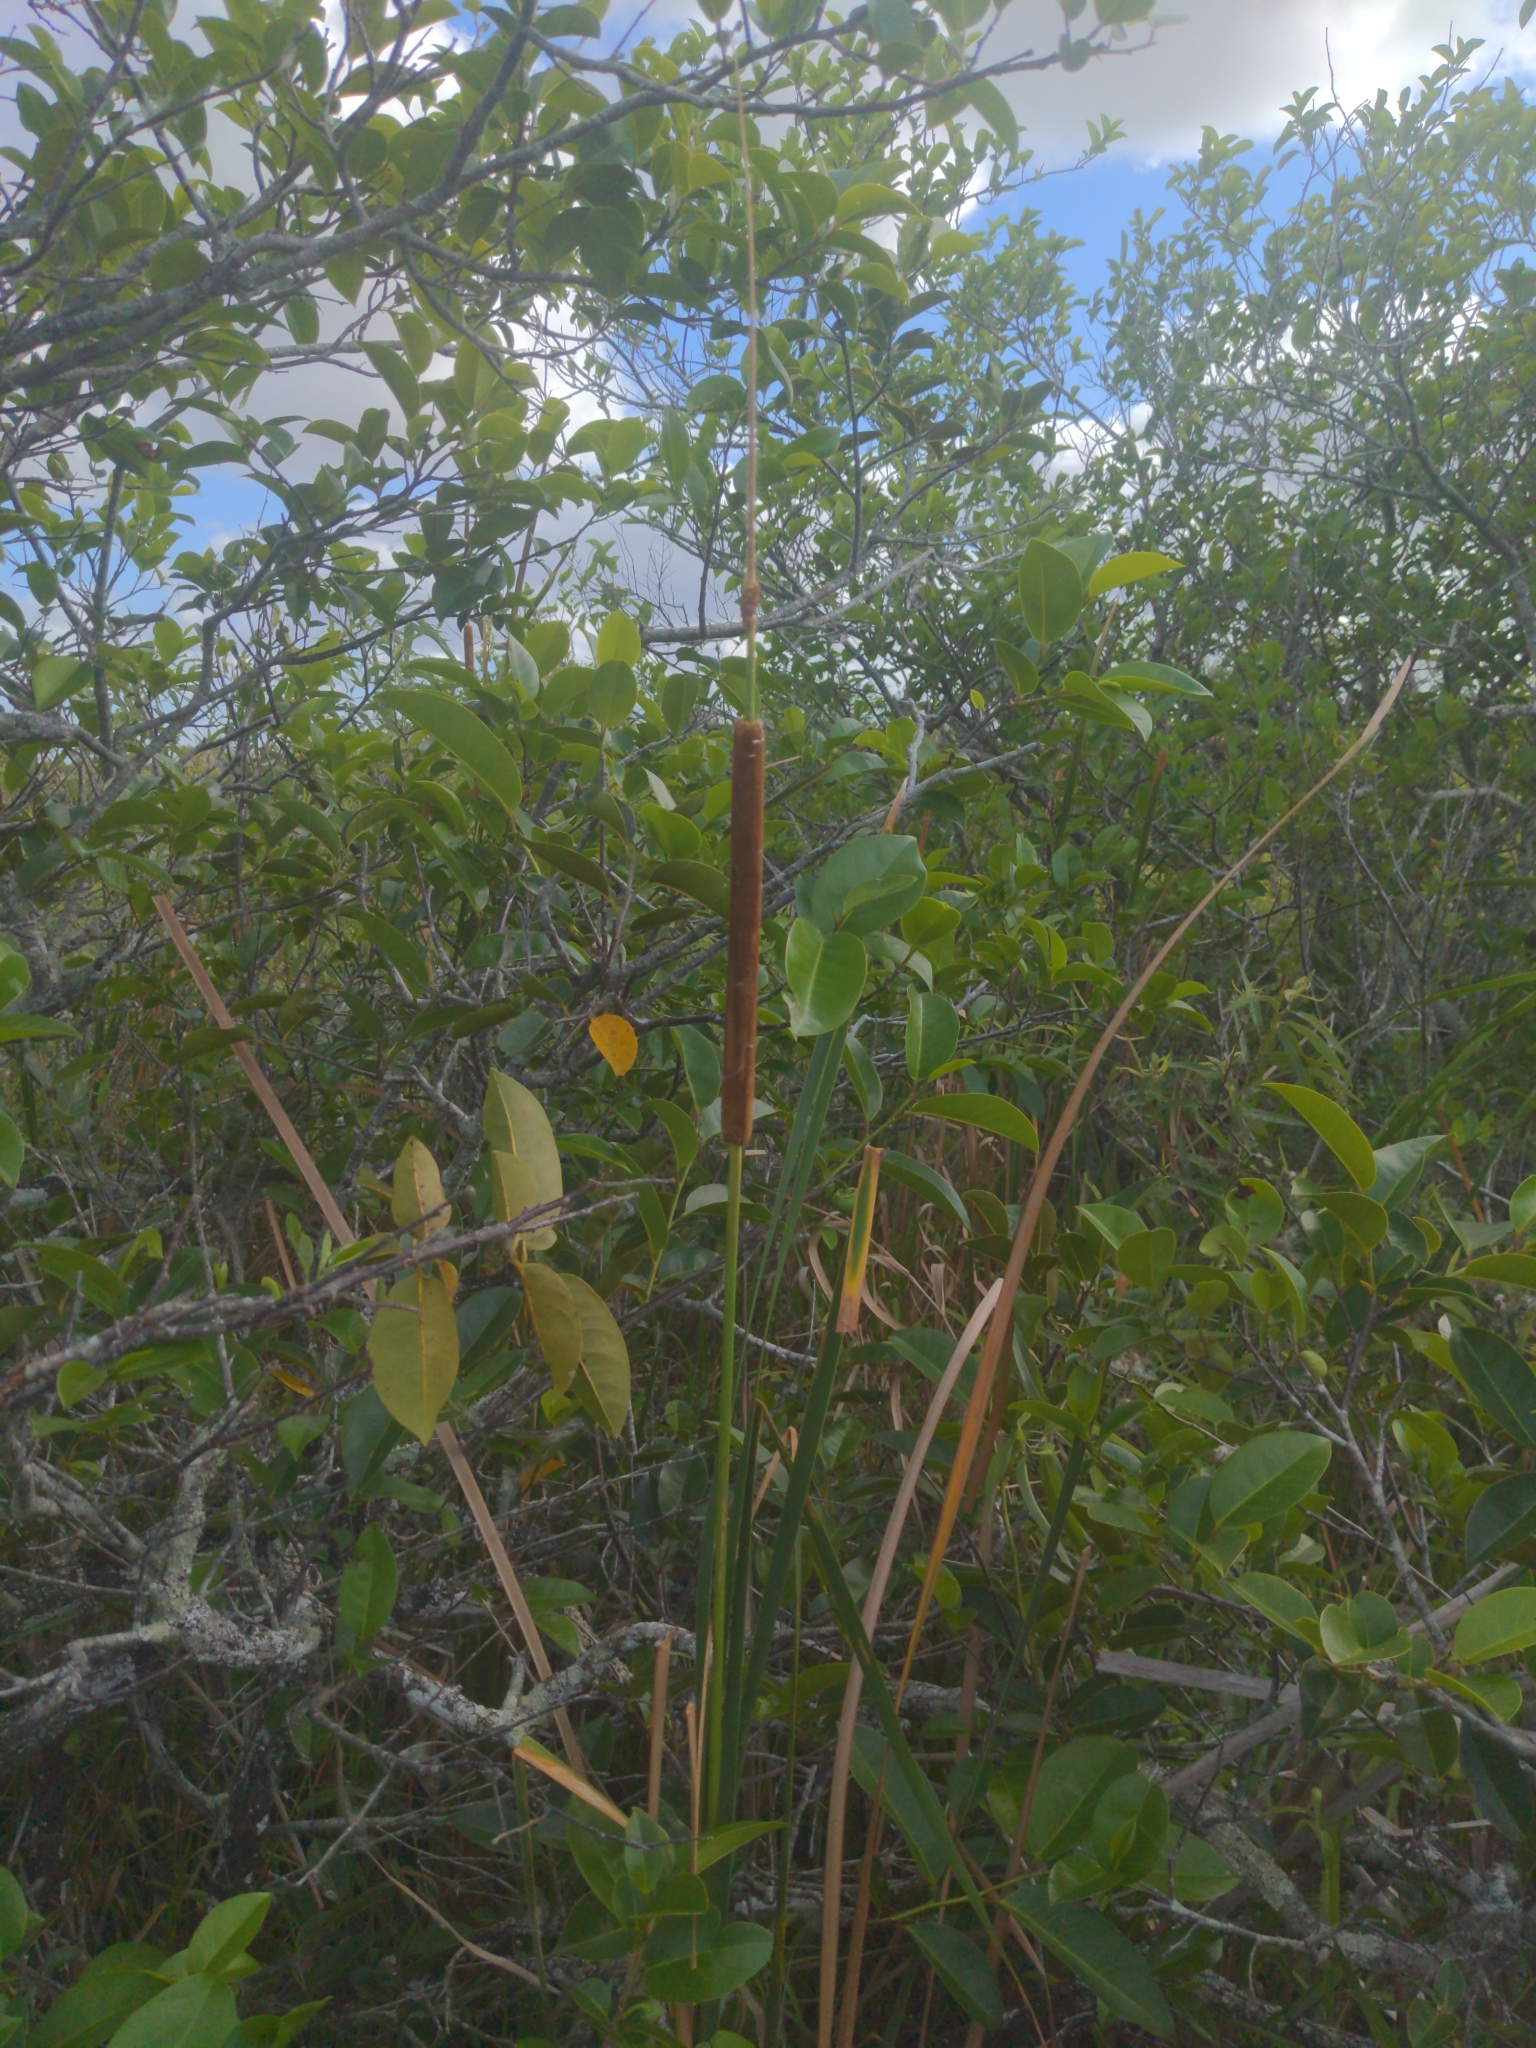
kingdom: Plantae
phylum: Tracheophyta
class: Liliopsida
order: Poales
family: Typhaceae
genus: Typha
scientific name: Typha domingensis
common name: Southern cattail
